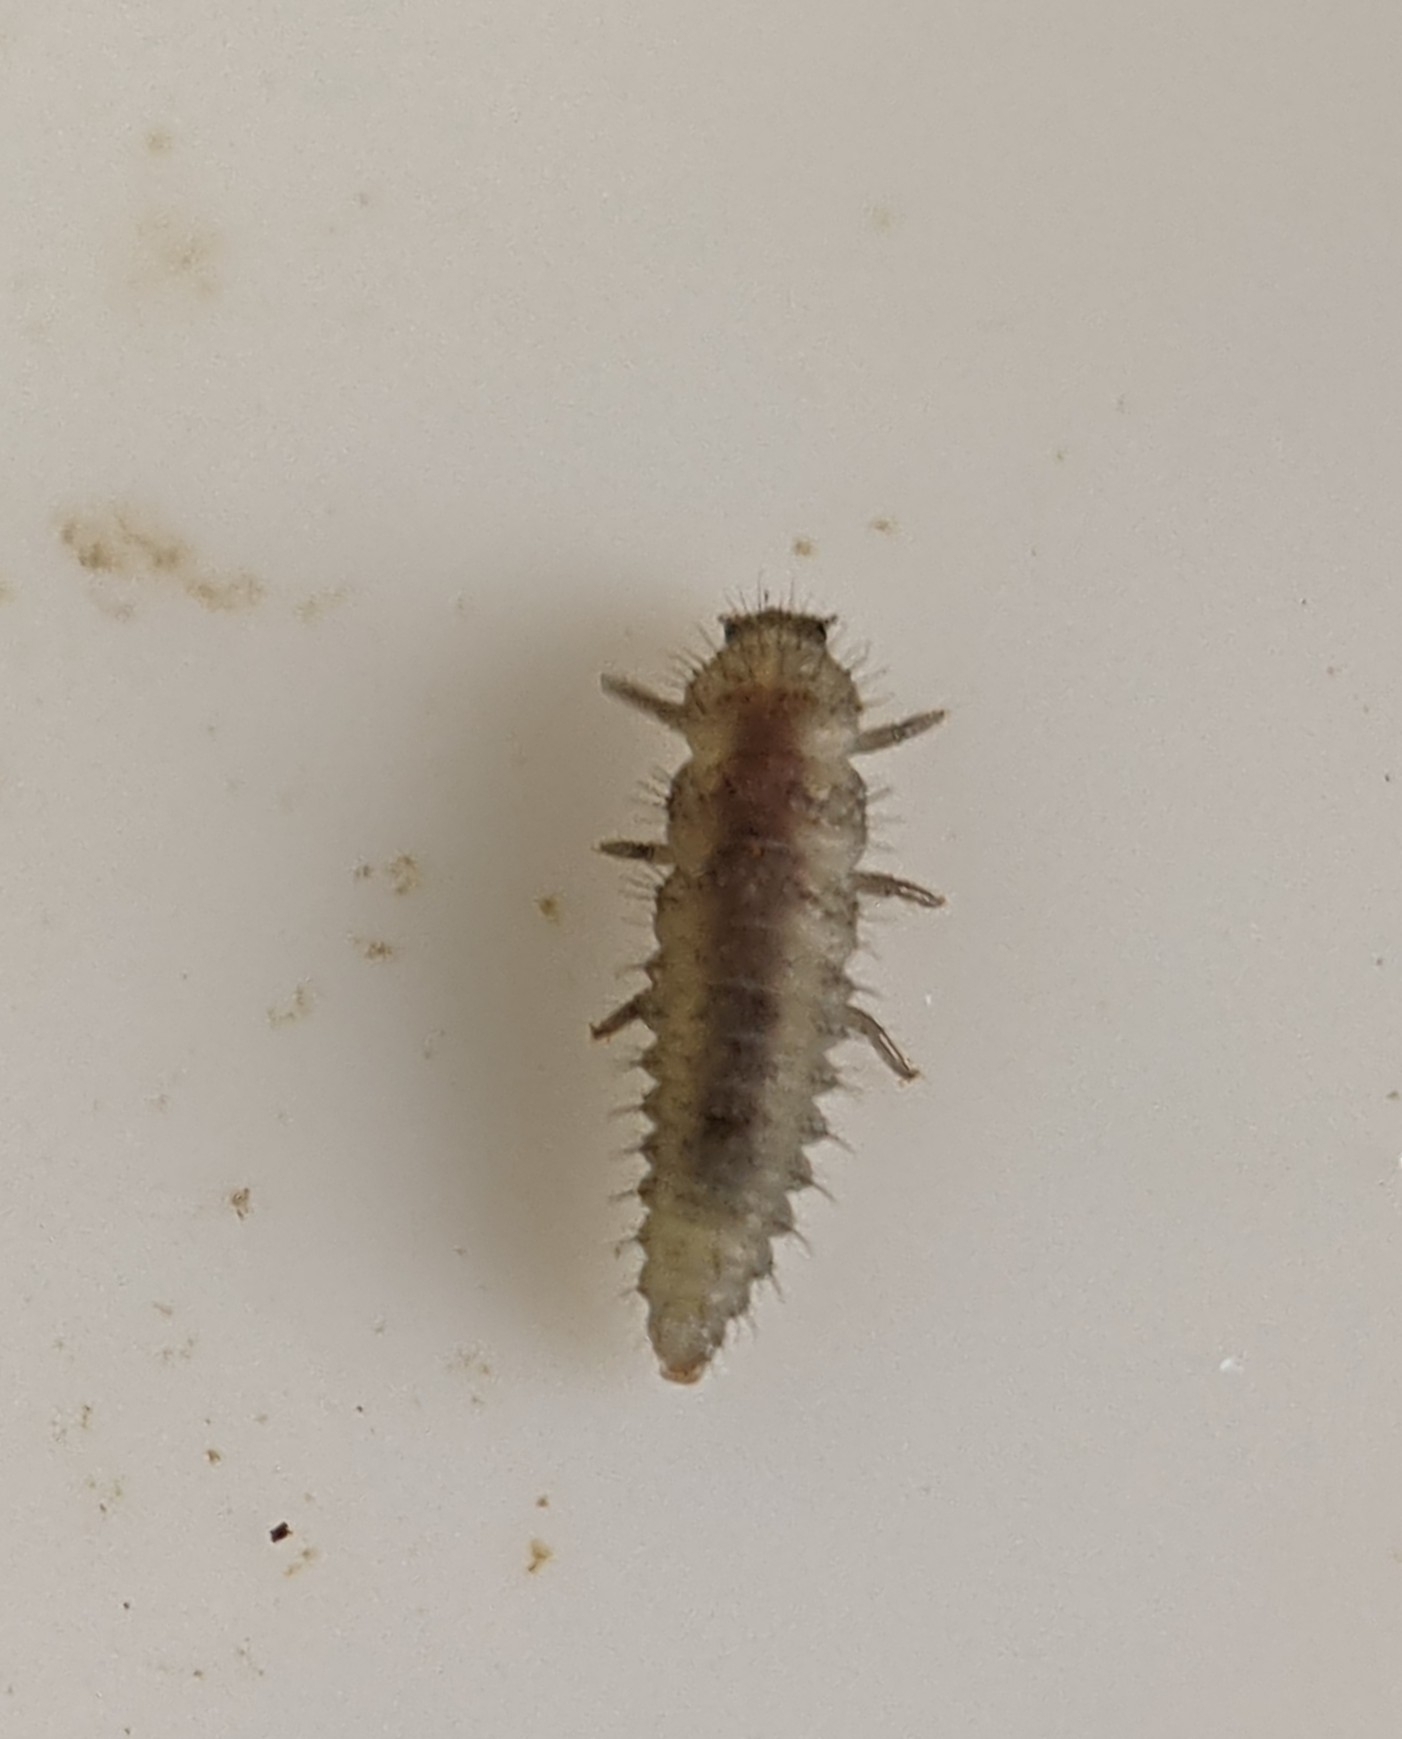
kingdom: Animalia
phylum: Arthropoda
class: Insecta
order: Coleoptera
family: Coccinellidae
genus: Tytthaspis
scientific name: Tytthaspis sedecimpunctata
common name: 16-spot ladybird
